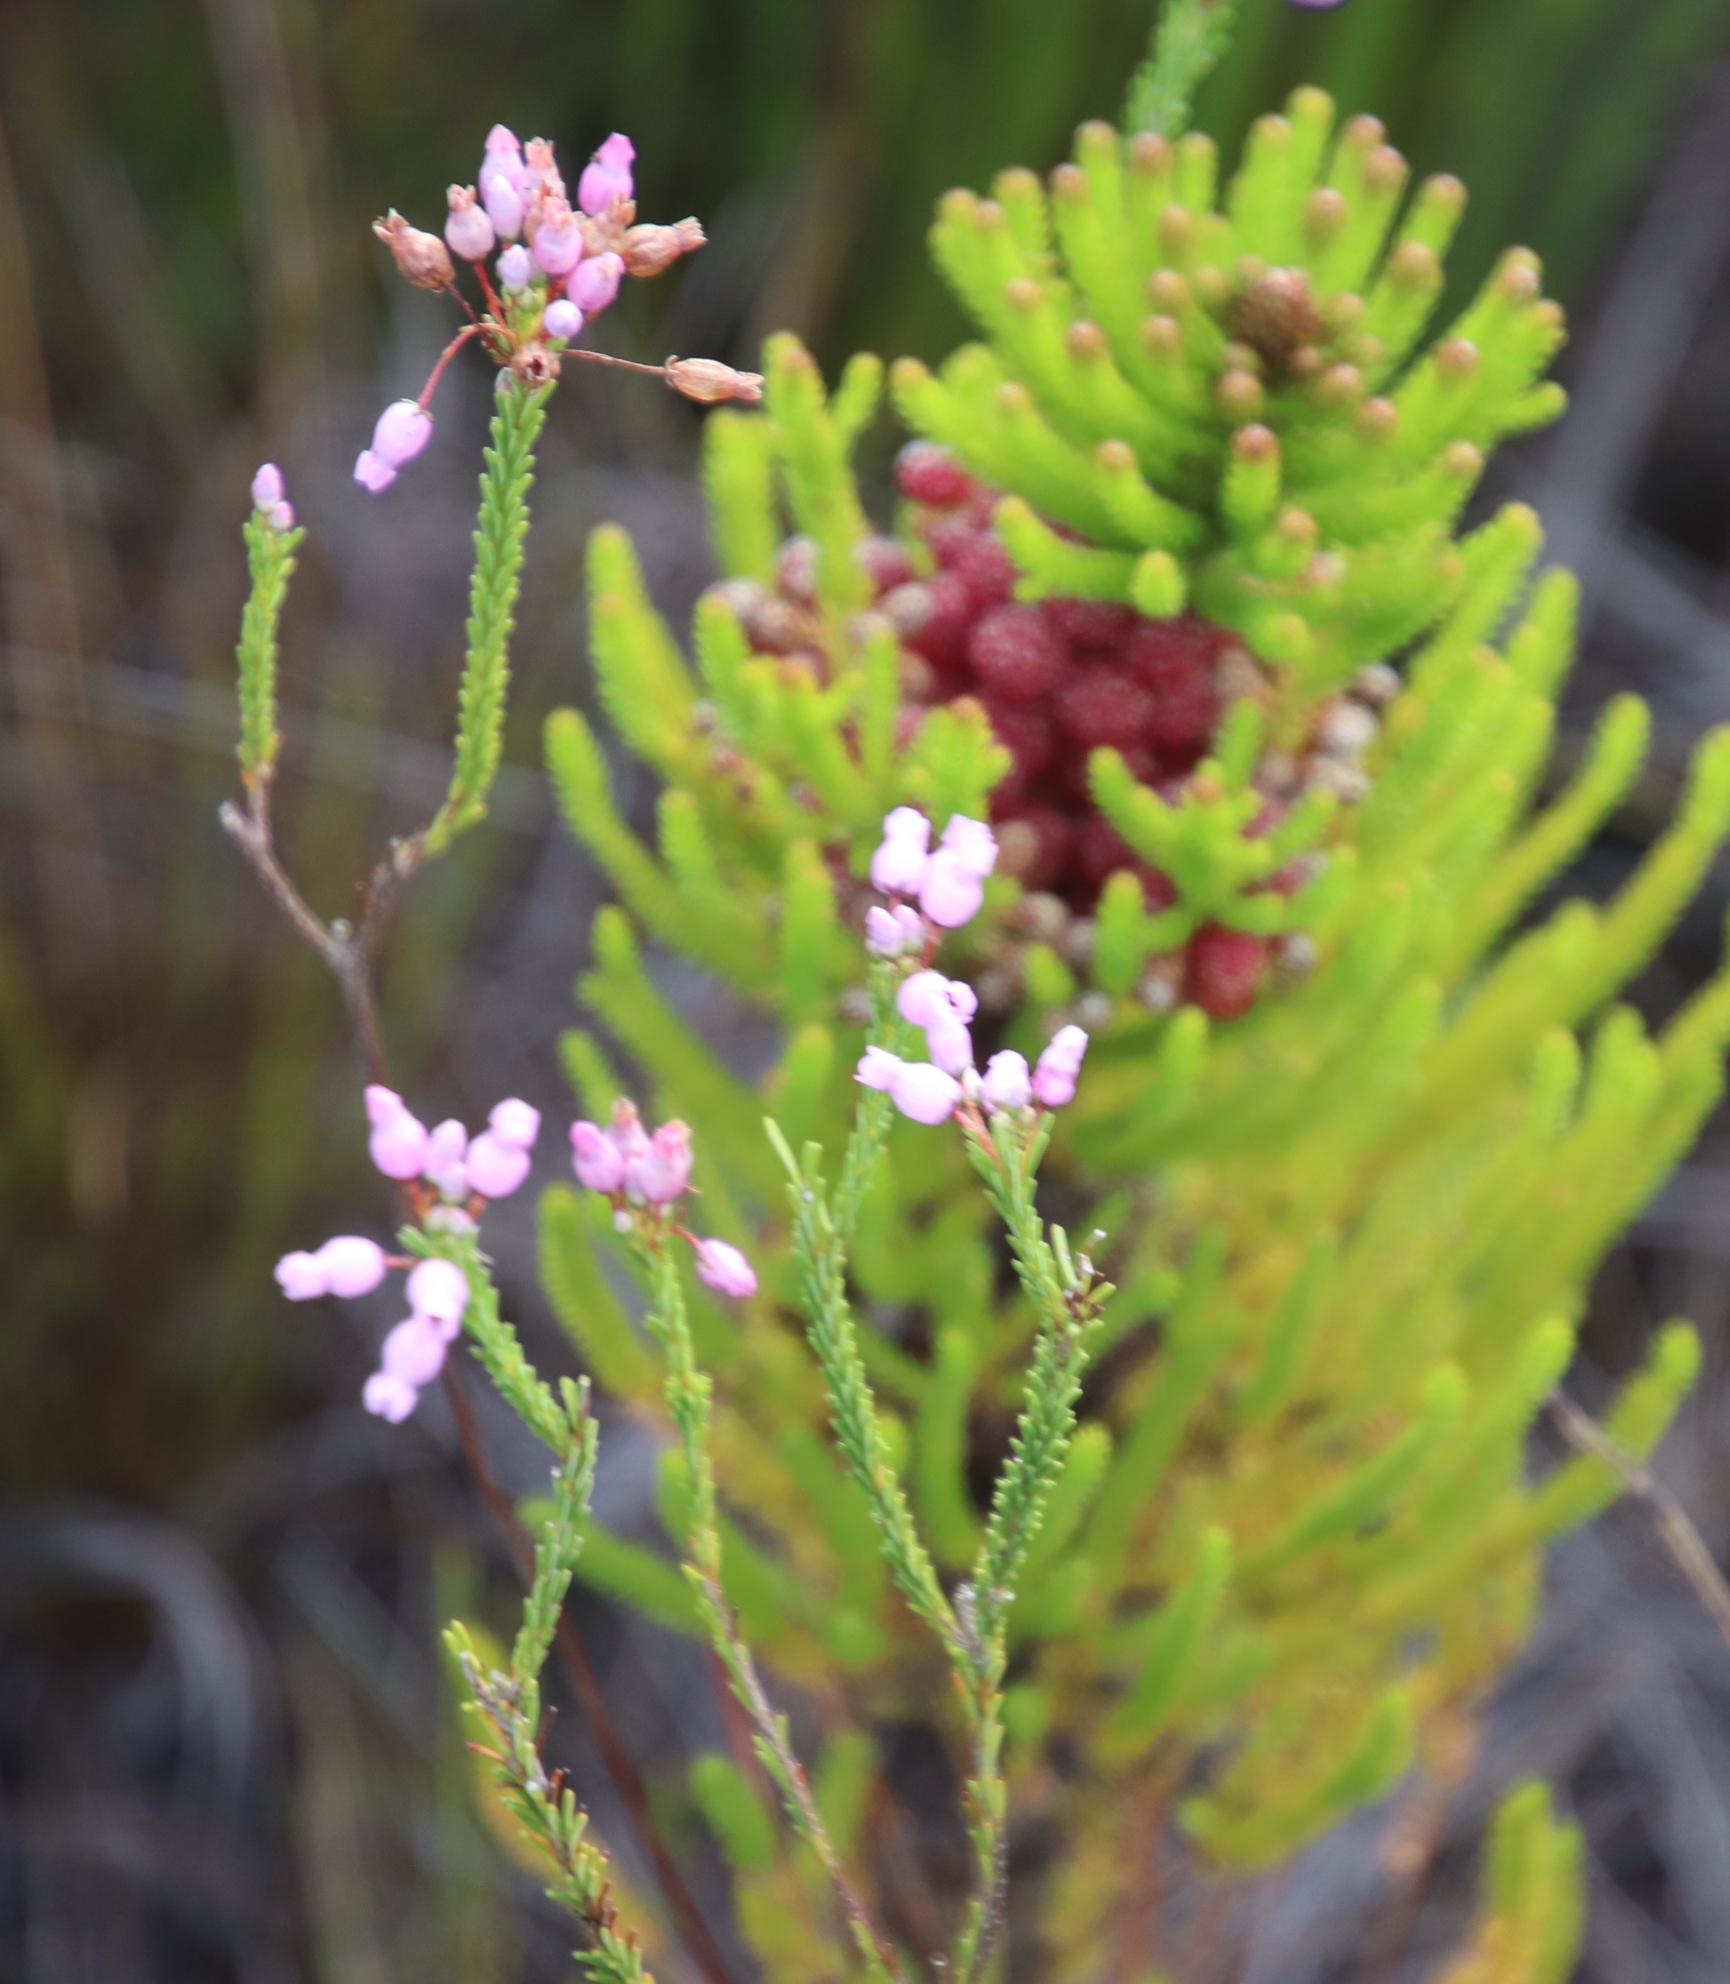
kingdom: Plantae
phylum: Tracheophyta
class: Magnoliopsida
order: Ericales
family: Ericaceae
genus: Erica
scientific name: Erica obliqua
